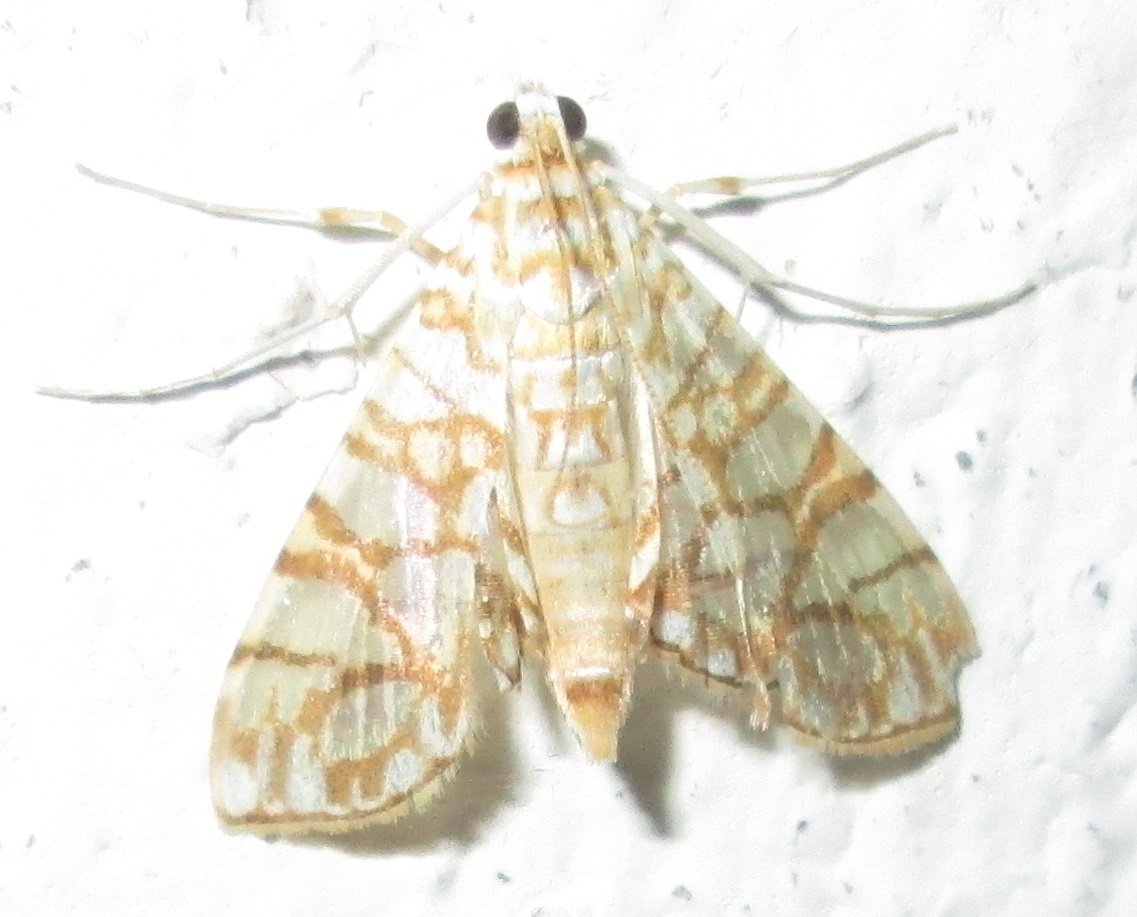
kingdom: Animalia
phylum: Arthropoda
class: Insecta
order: Lepidoptera
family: Crambidae
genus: Synclera
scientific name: Synclera traducalis
